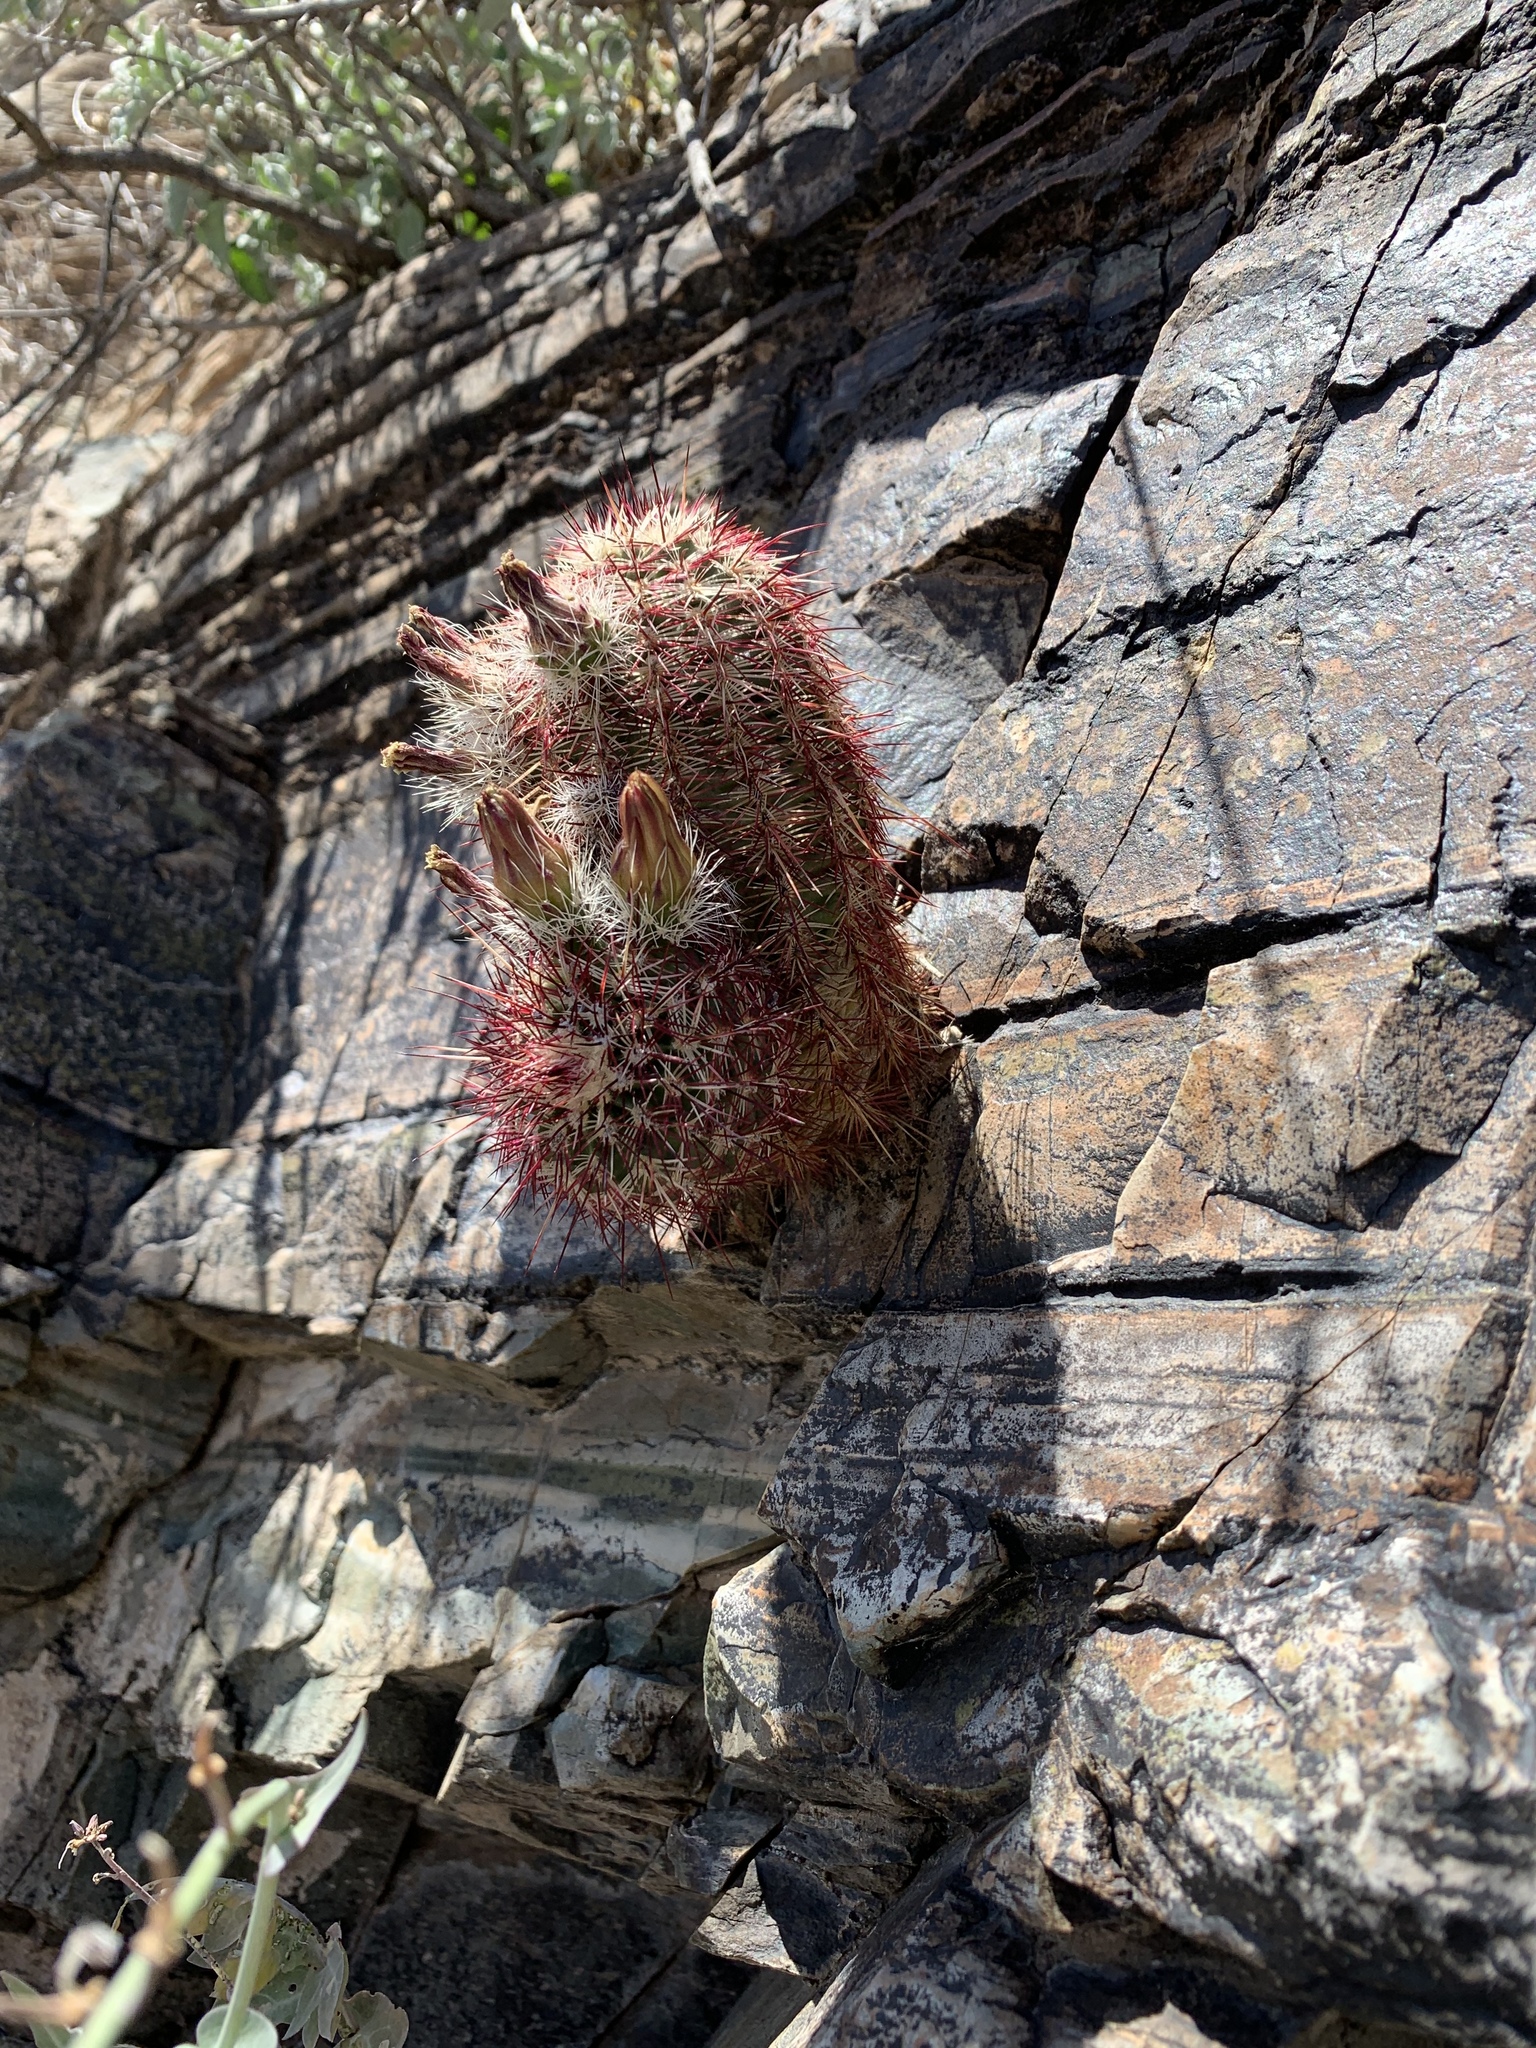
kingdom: Plantae
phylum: Tracheophyta
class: Magnoliopsida
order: Caryophyllales
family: Cactaceae
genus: Echinocereus
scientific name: Echinocereus viridiflorus
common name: Nylon hedgehog cactus
